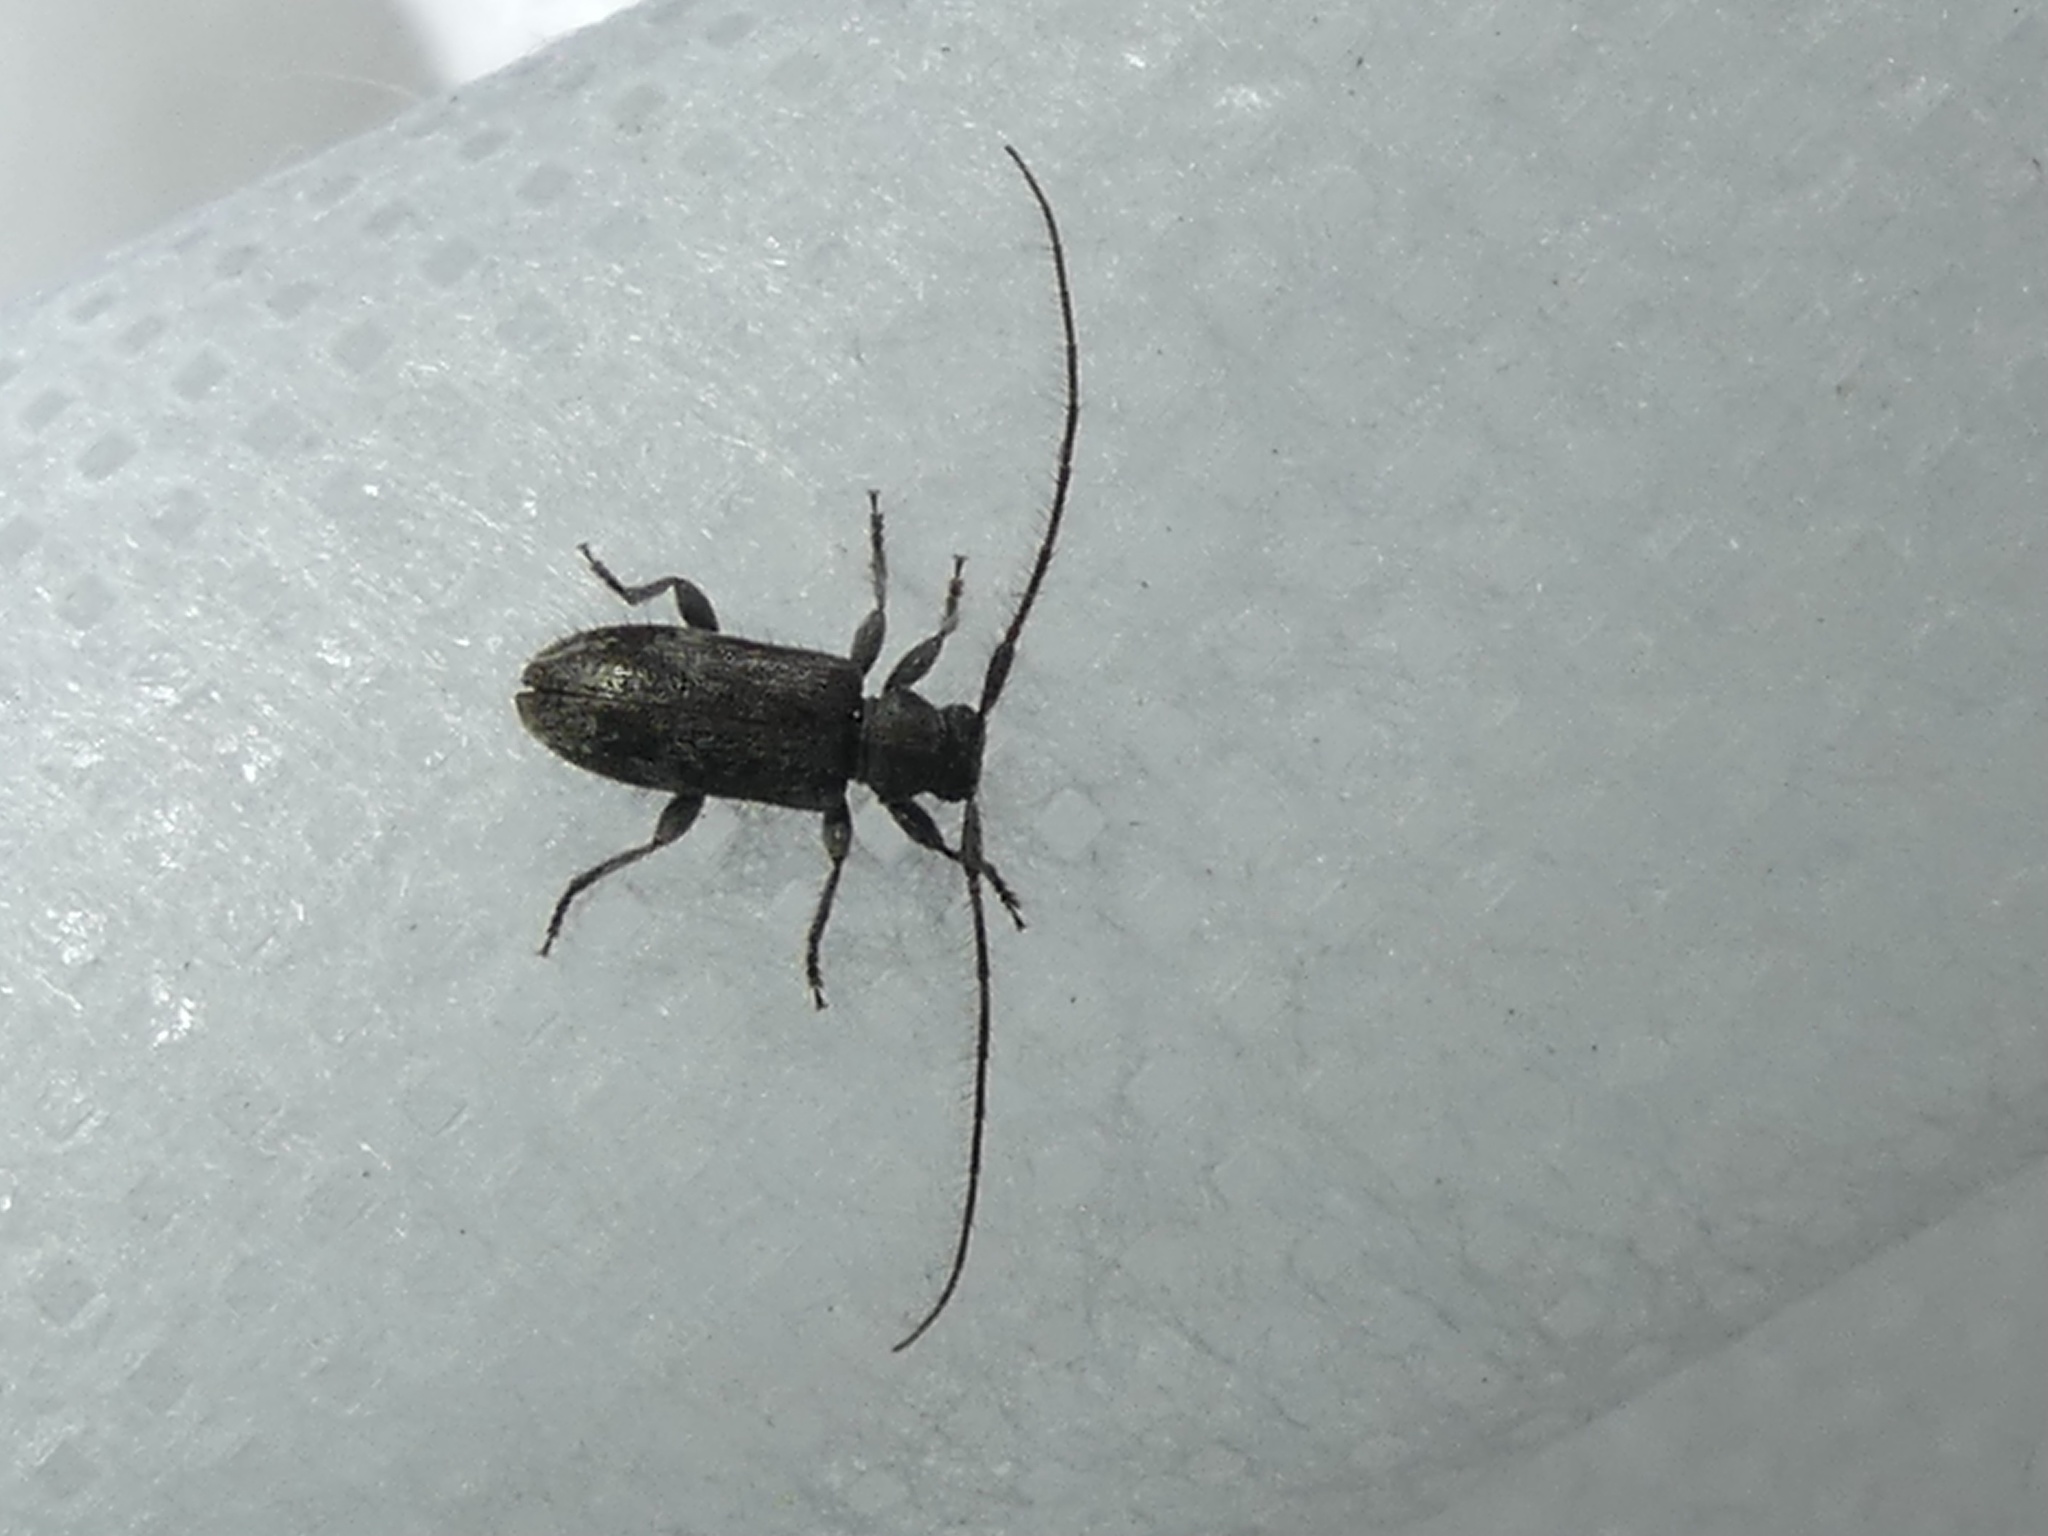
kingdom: Animalia
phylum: Arthropoda
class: Insecta
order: Coleoptera
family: Cerambycidae
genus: Exocentrus
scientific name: Exocentrus adspersus
